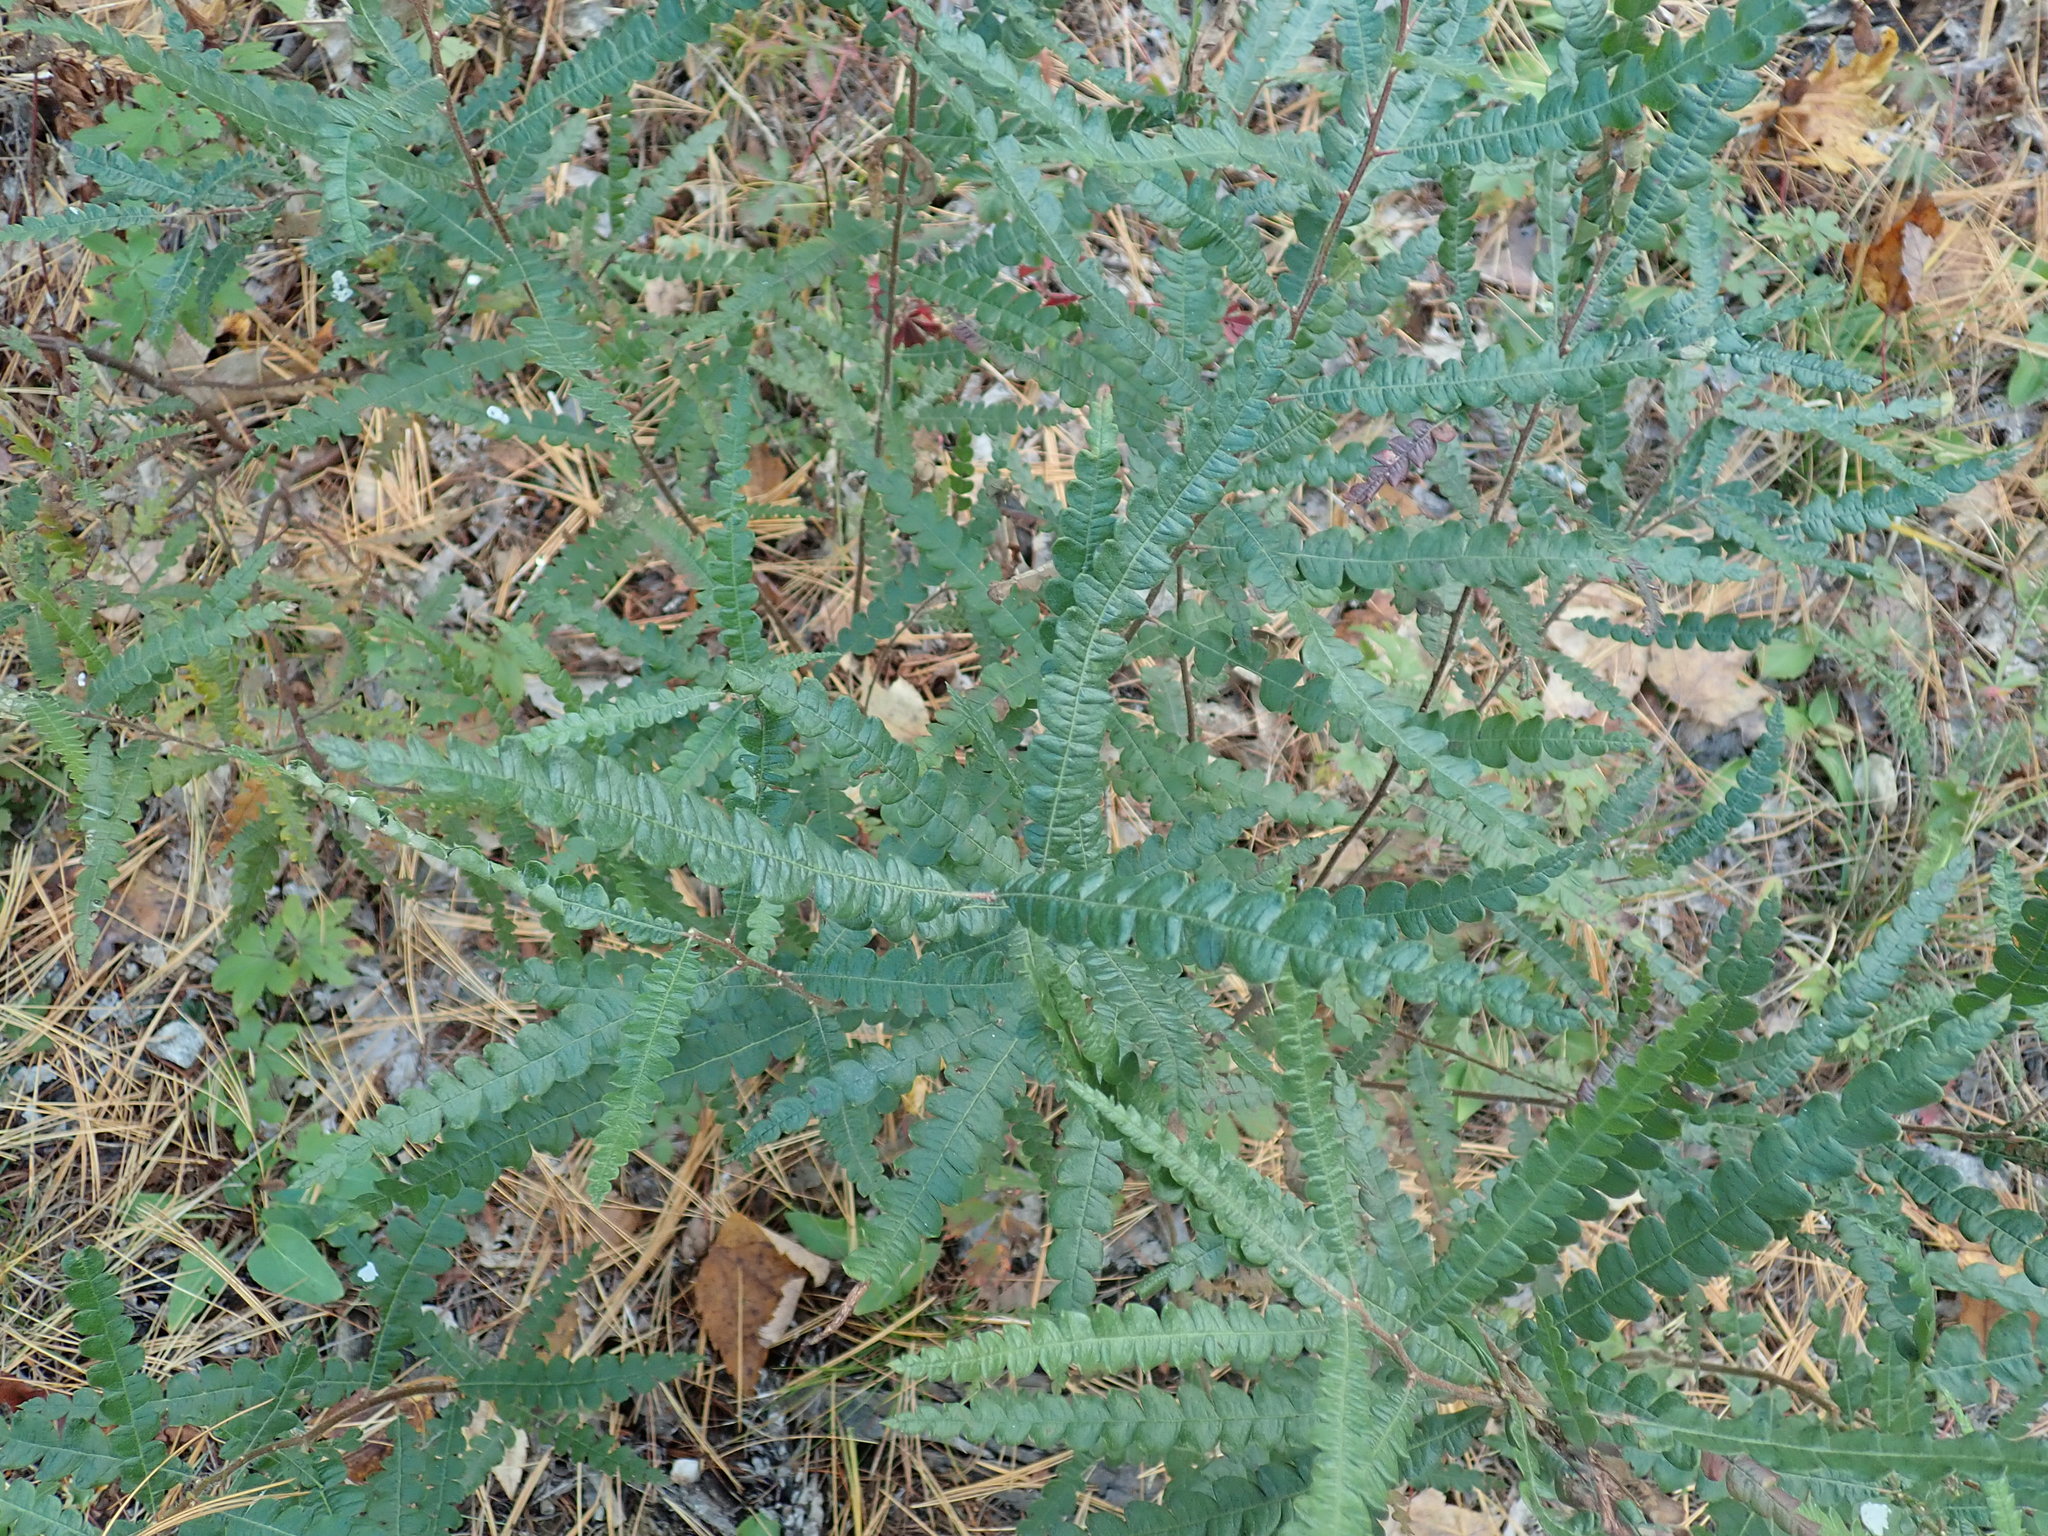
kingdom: Plantae
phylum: Tracheophyta
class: Magnoliopsida
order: Fagales
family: Myricaceae
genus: Comptonia
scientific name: Comptonia peregrina
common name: Sweet-fern
